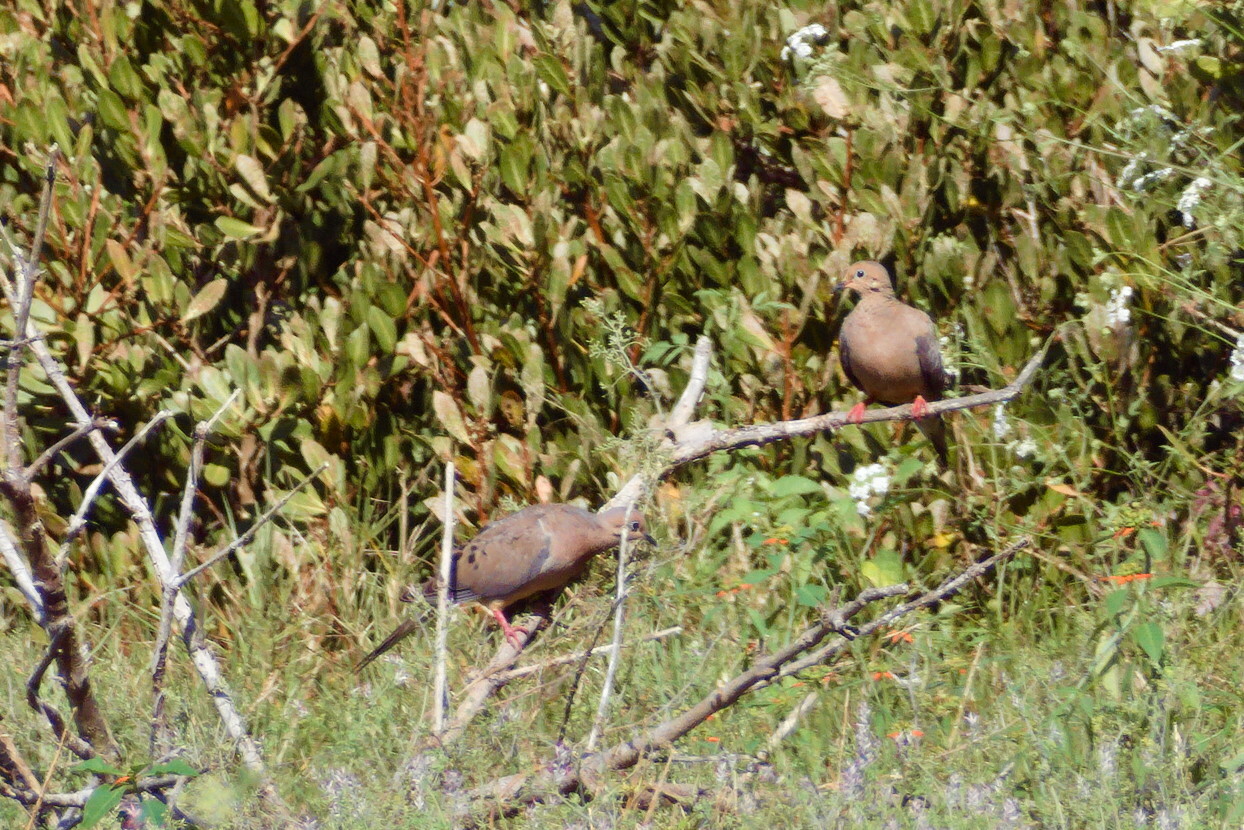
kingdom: Animalia
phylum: Chordata
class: Aves
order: Columbiformes
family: Columbidae
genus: Zenaida
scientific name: Zenaida macroura
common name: Mourning dove
